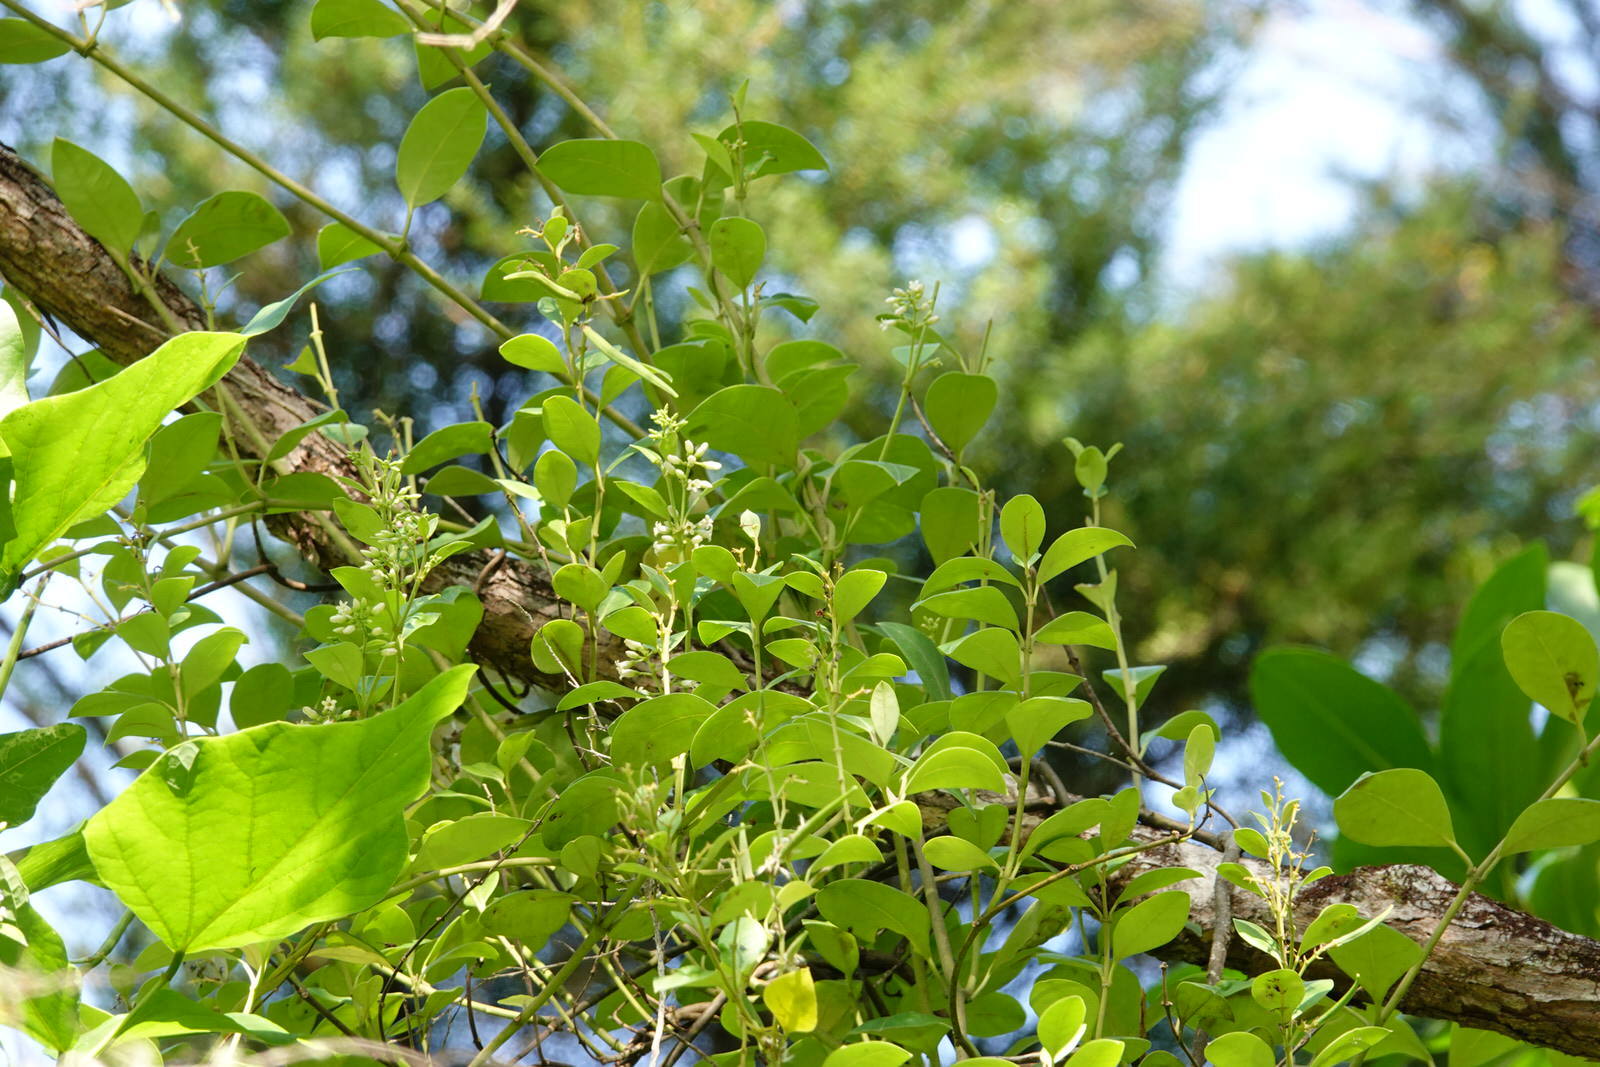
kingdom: Plantae
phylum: Tracheophyta
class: Magnoliopsida
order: Gentianales
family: Apocynaceae
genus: Parsonsia
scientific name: Parsonsia heterophylla
